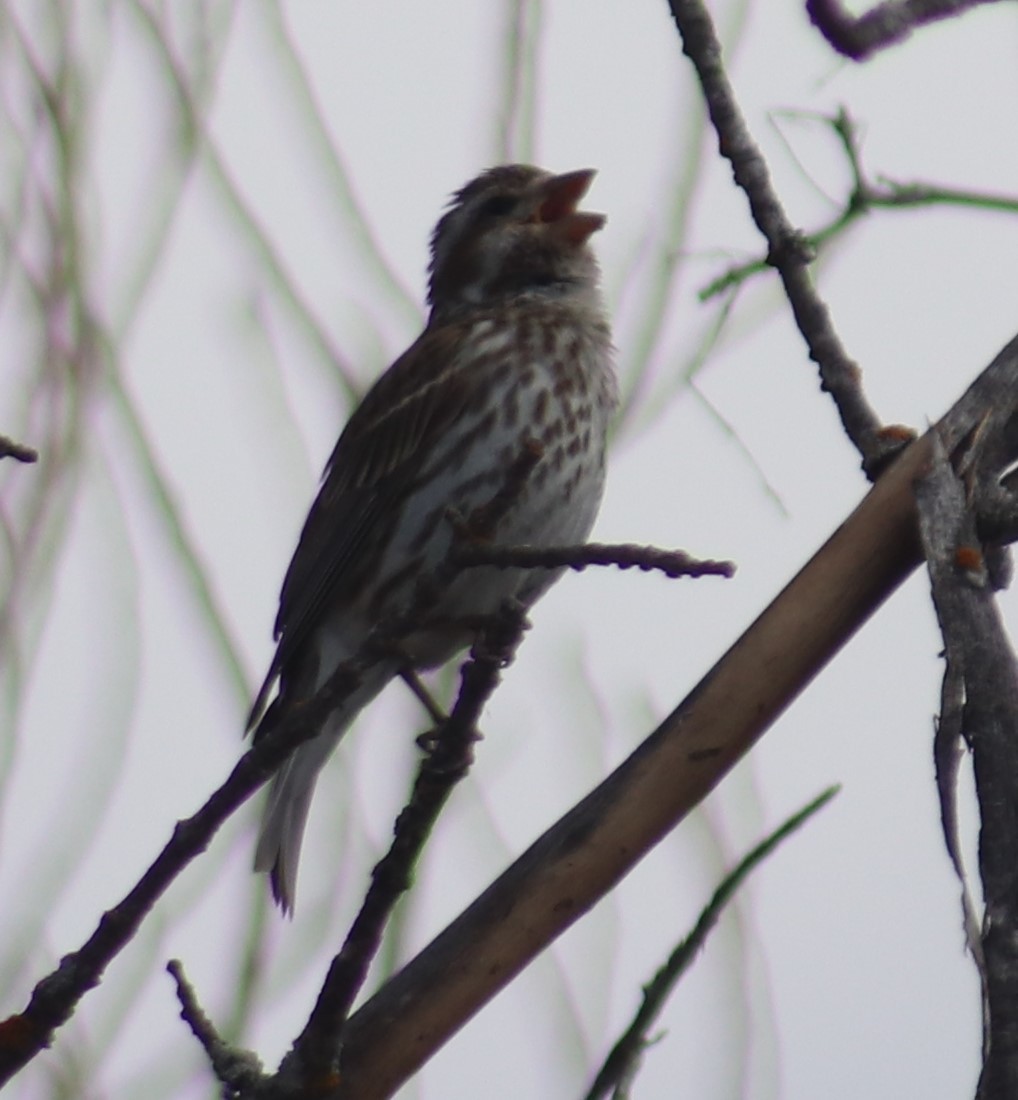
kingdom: Animalia
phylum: Chordata
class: Aves
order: Passeriformes
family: Fringillidae
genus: Haemorhous
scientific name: Haemorhous purpureus
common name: Purple finch
